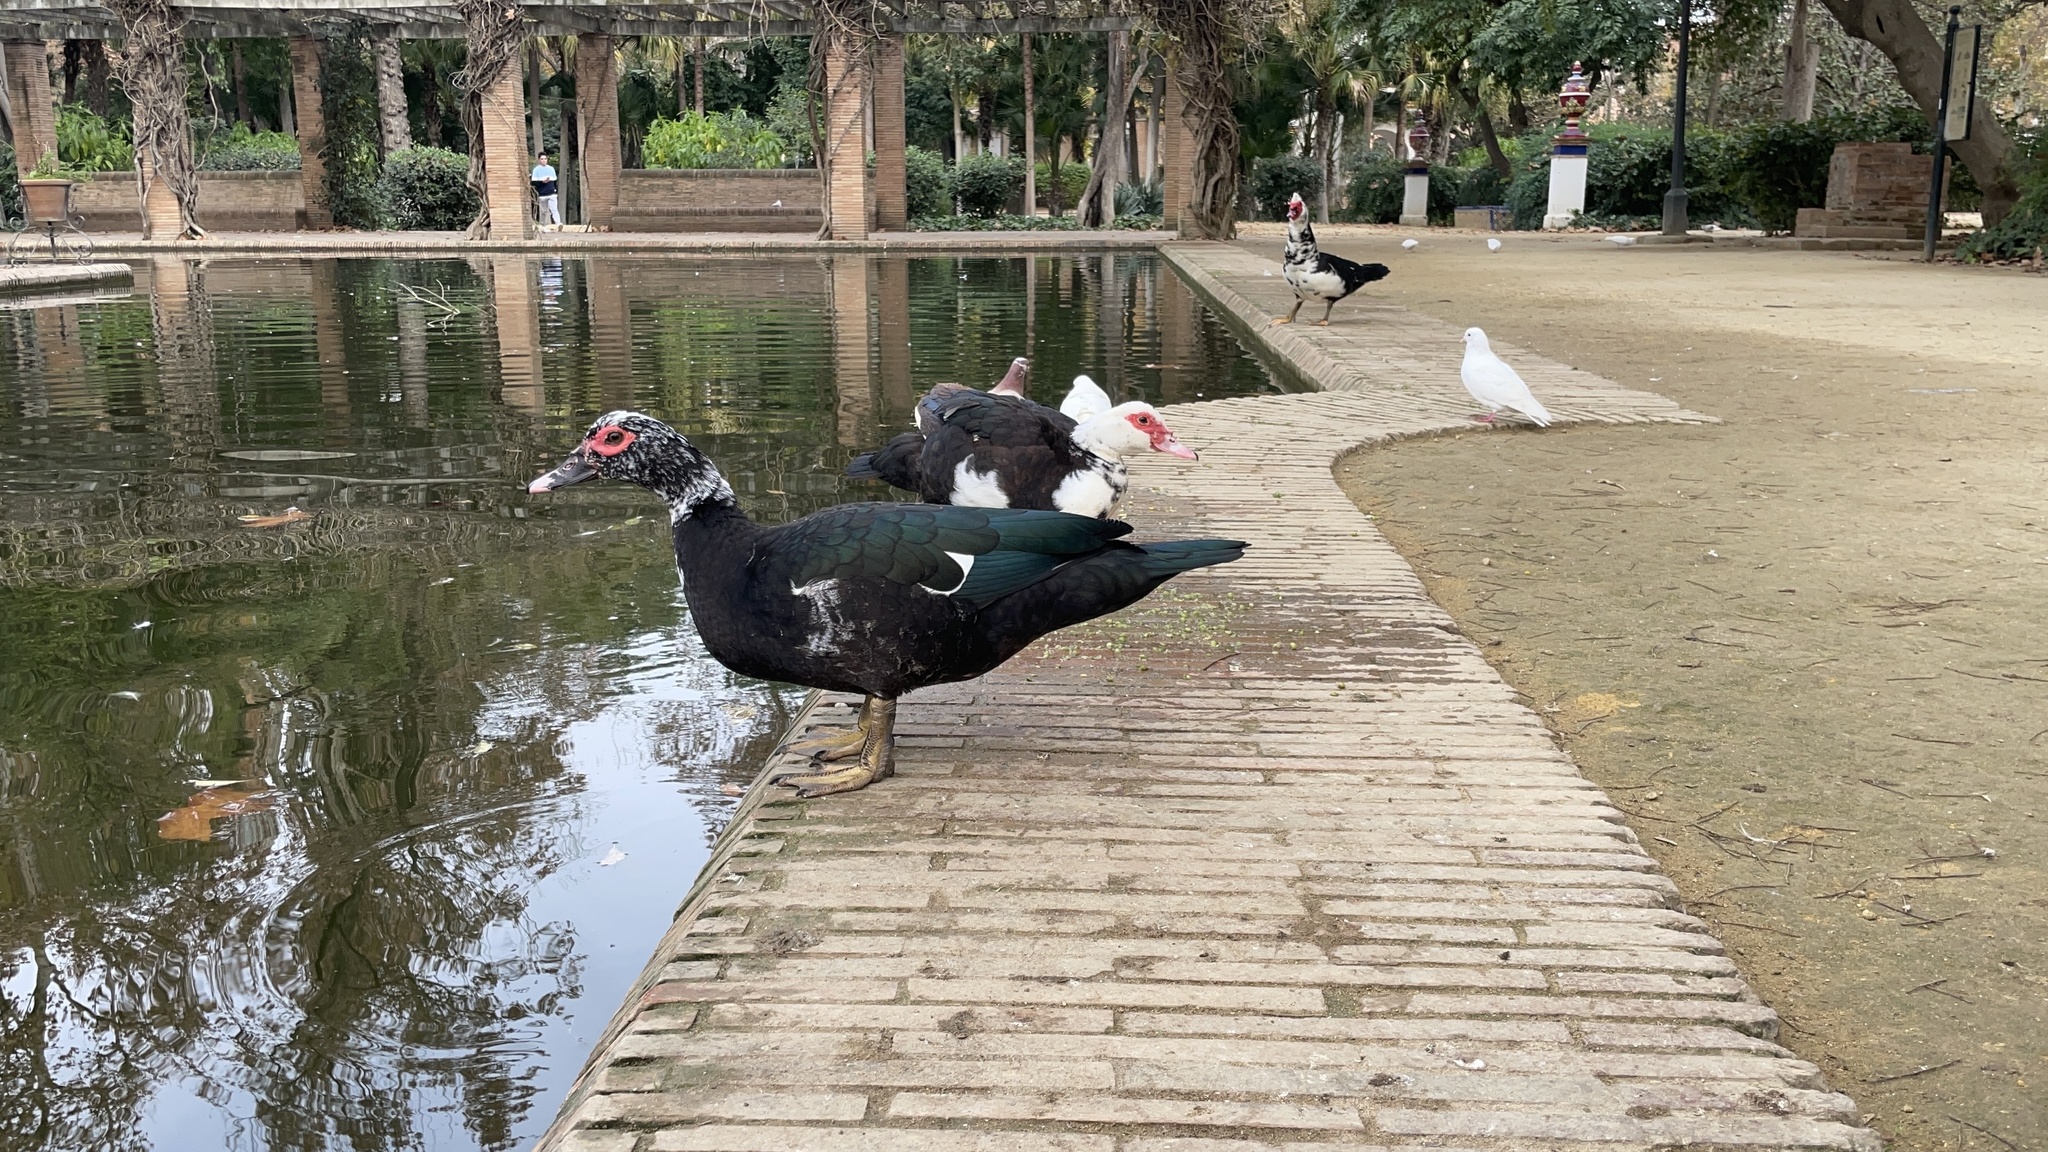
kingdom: Animalia
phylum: Chordata
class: Aves
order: Anseriformes
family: Anatidae
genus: Cairina
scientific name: Cairina moschata
